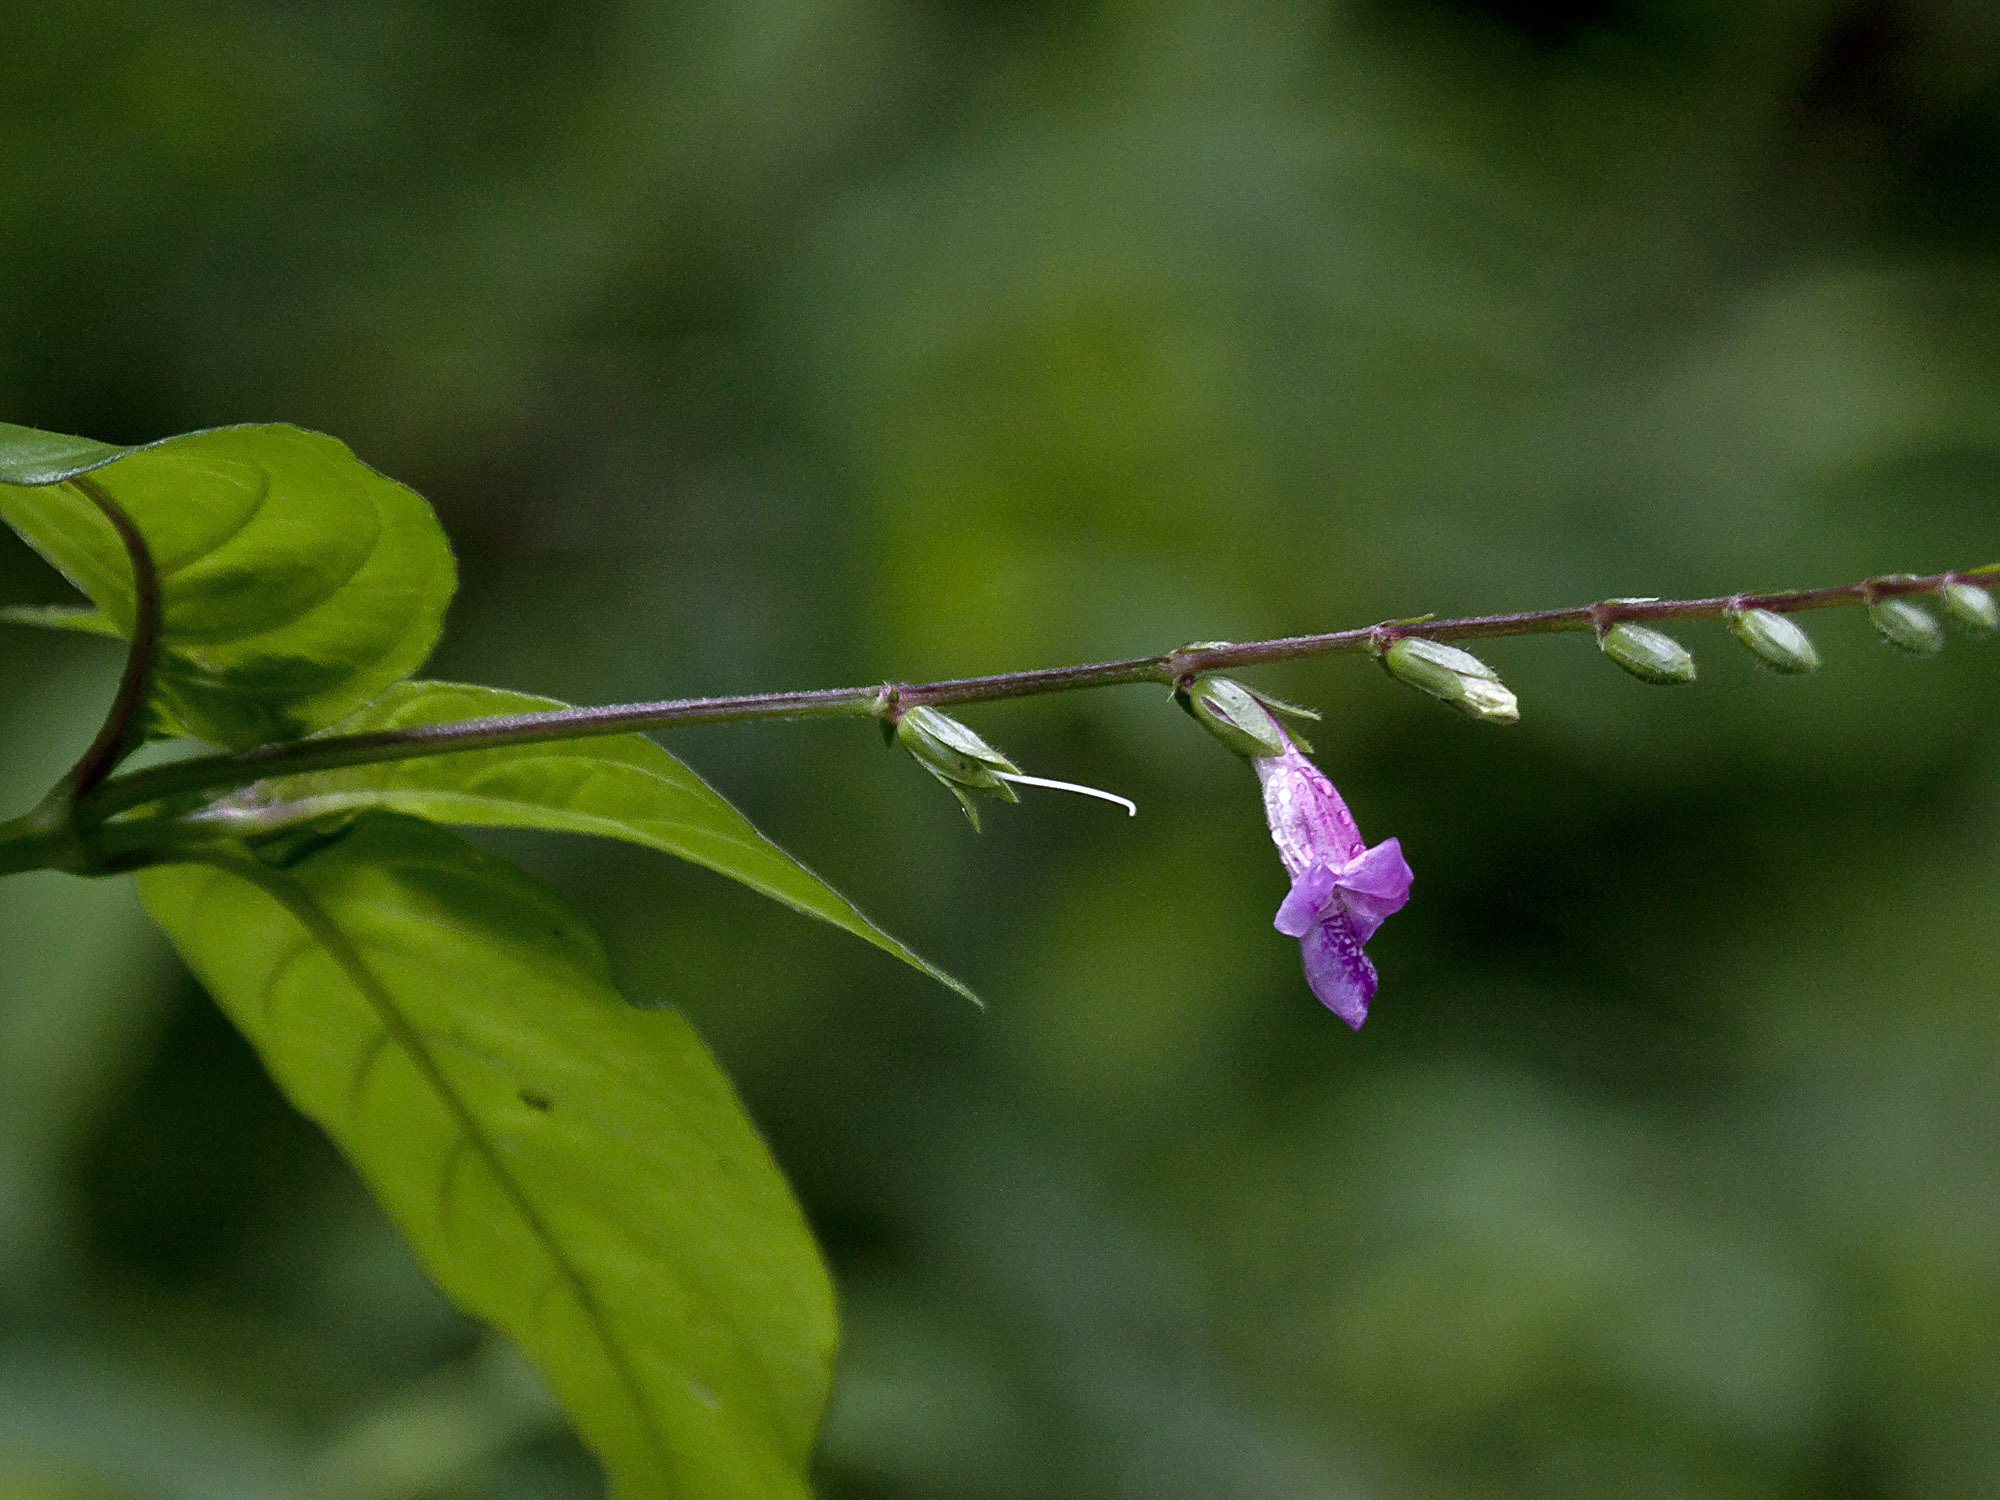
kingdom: Plantae
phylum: Tracheophyta
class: Magnoliopsida
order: Lamiales
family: Acanthaceae
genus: Asystasia
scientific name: Asystasia dalzelliana
